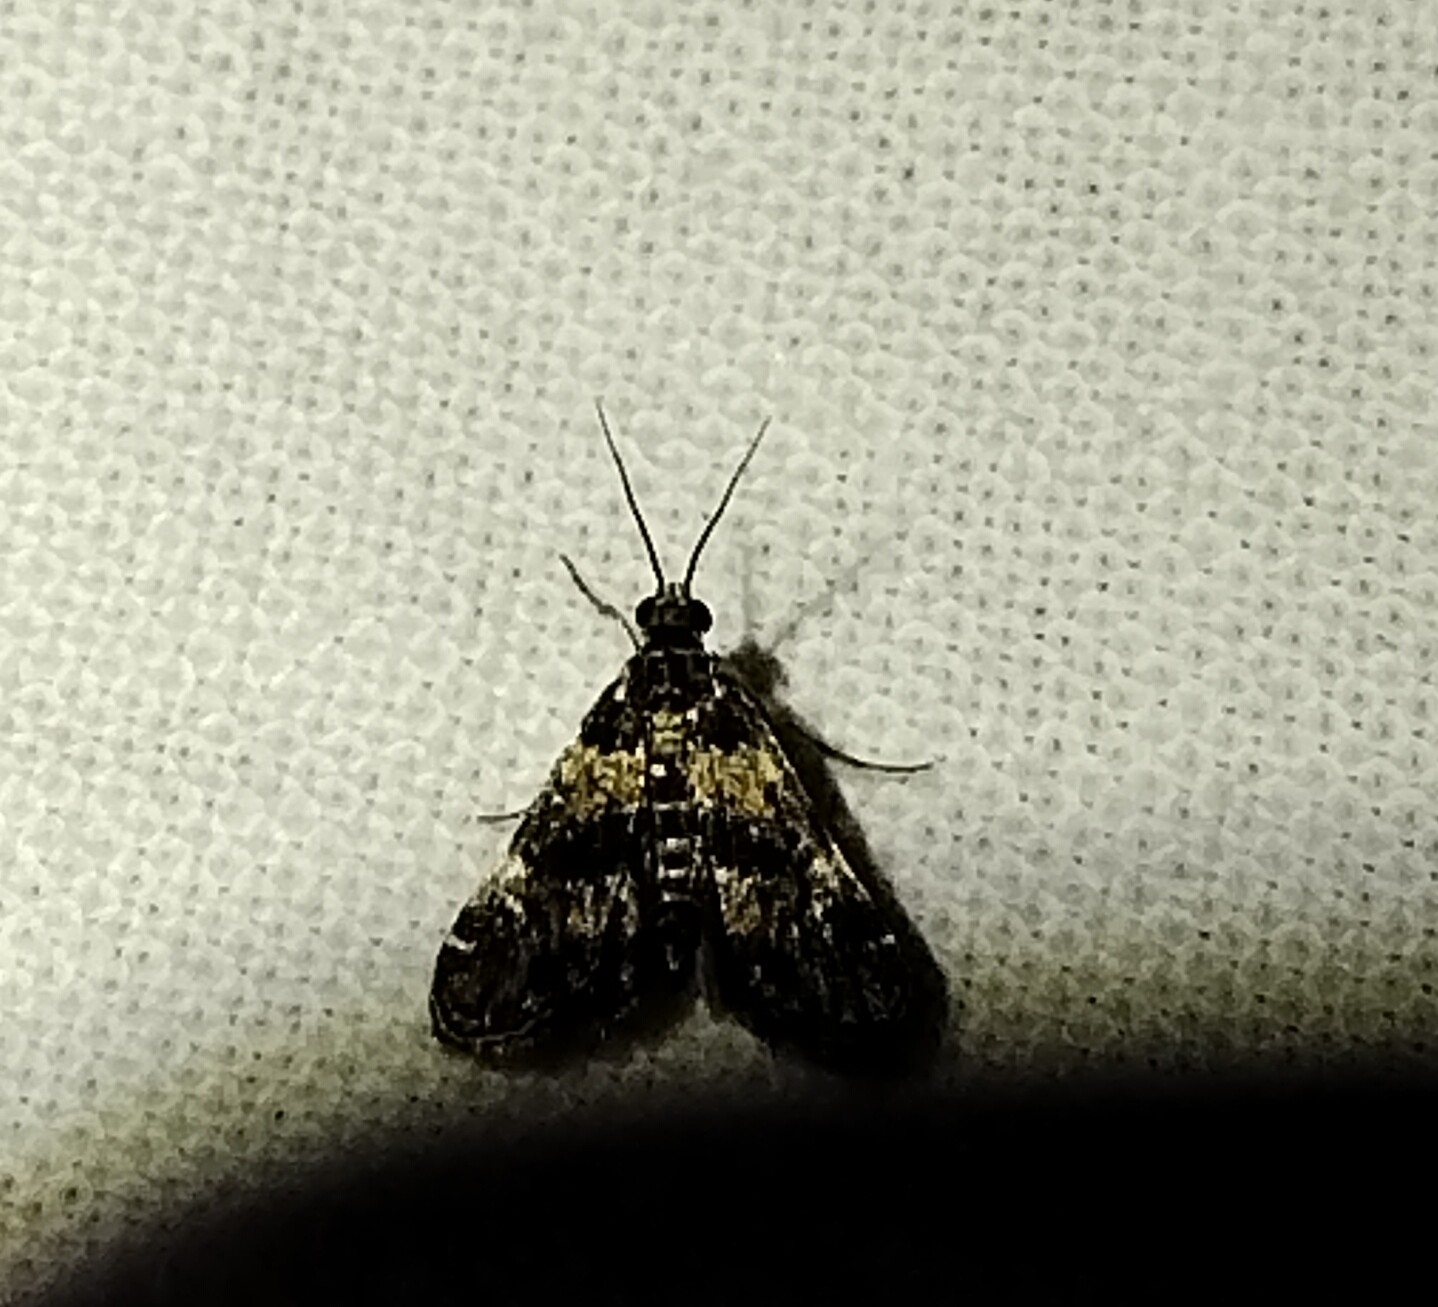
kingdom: Animalia
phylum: Arthropoda
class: Insecta
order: Lepidoptera
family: Crambidae
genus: Elophila
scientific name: Elophila obliteralis
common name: Waterlily leafcutter moth
